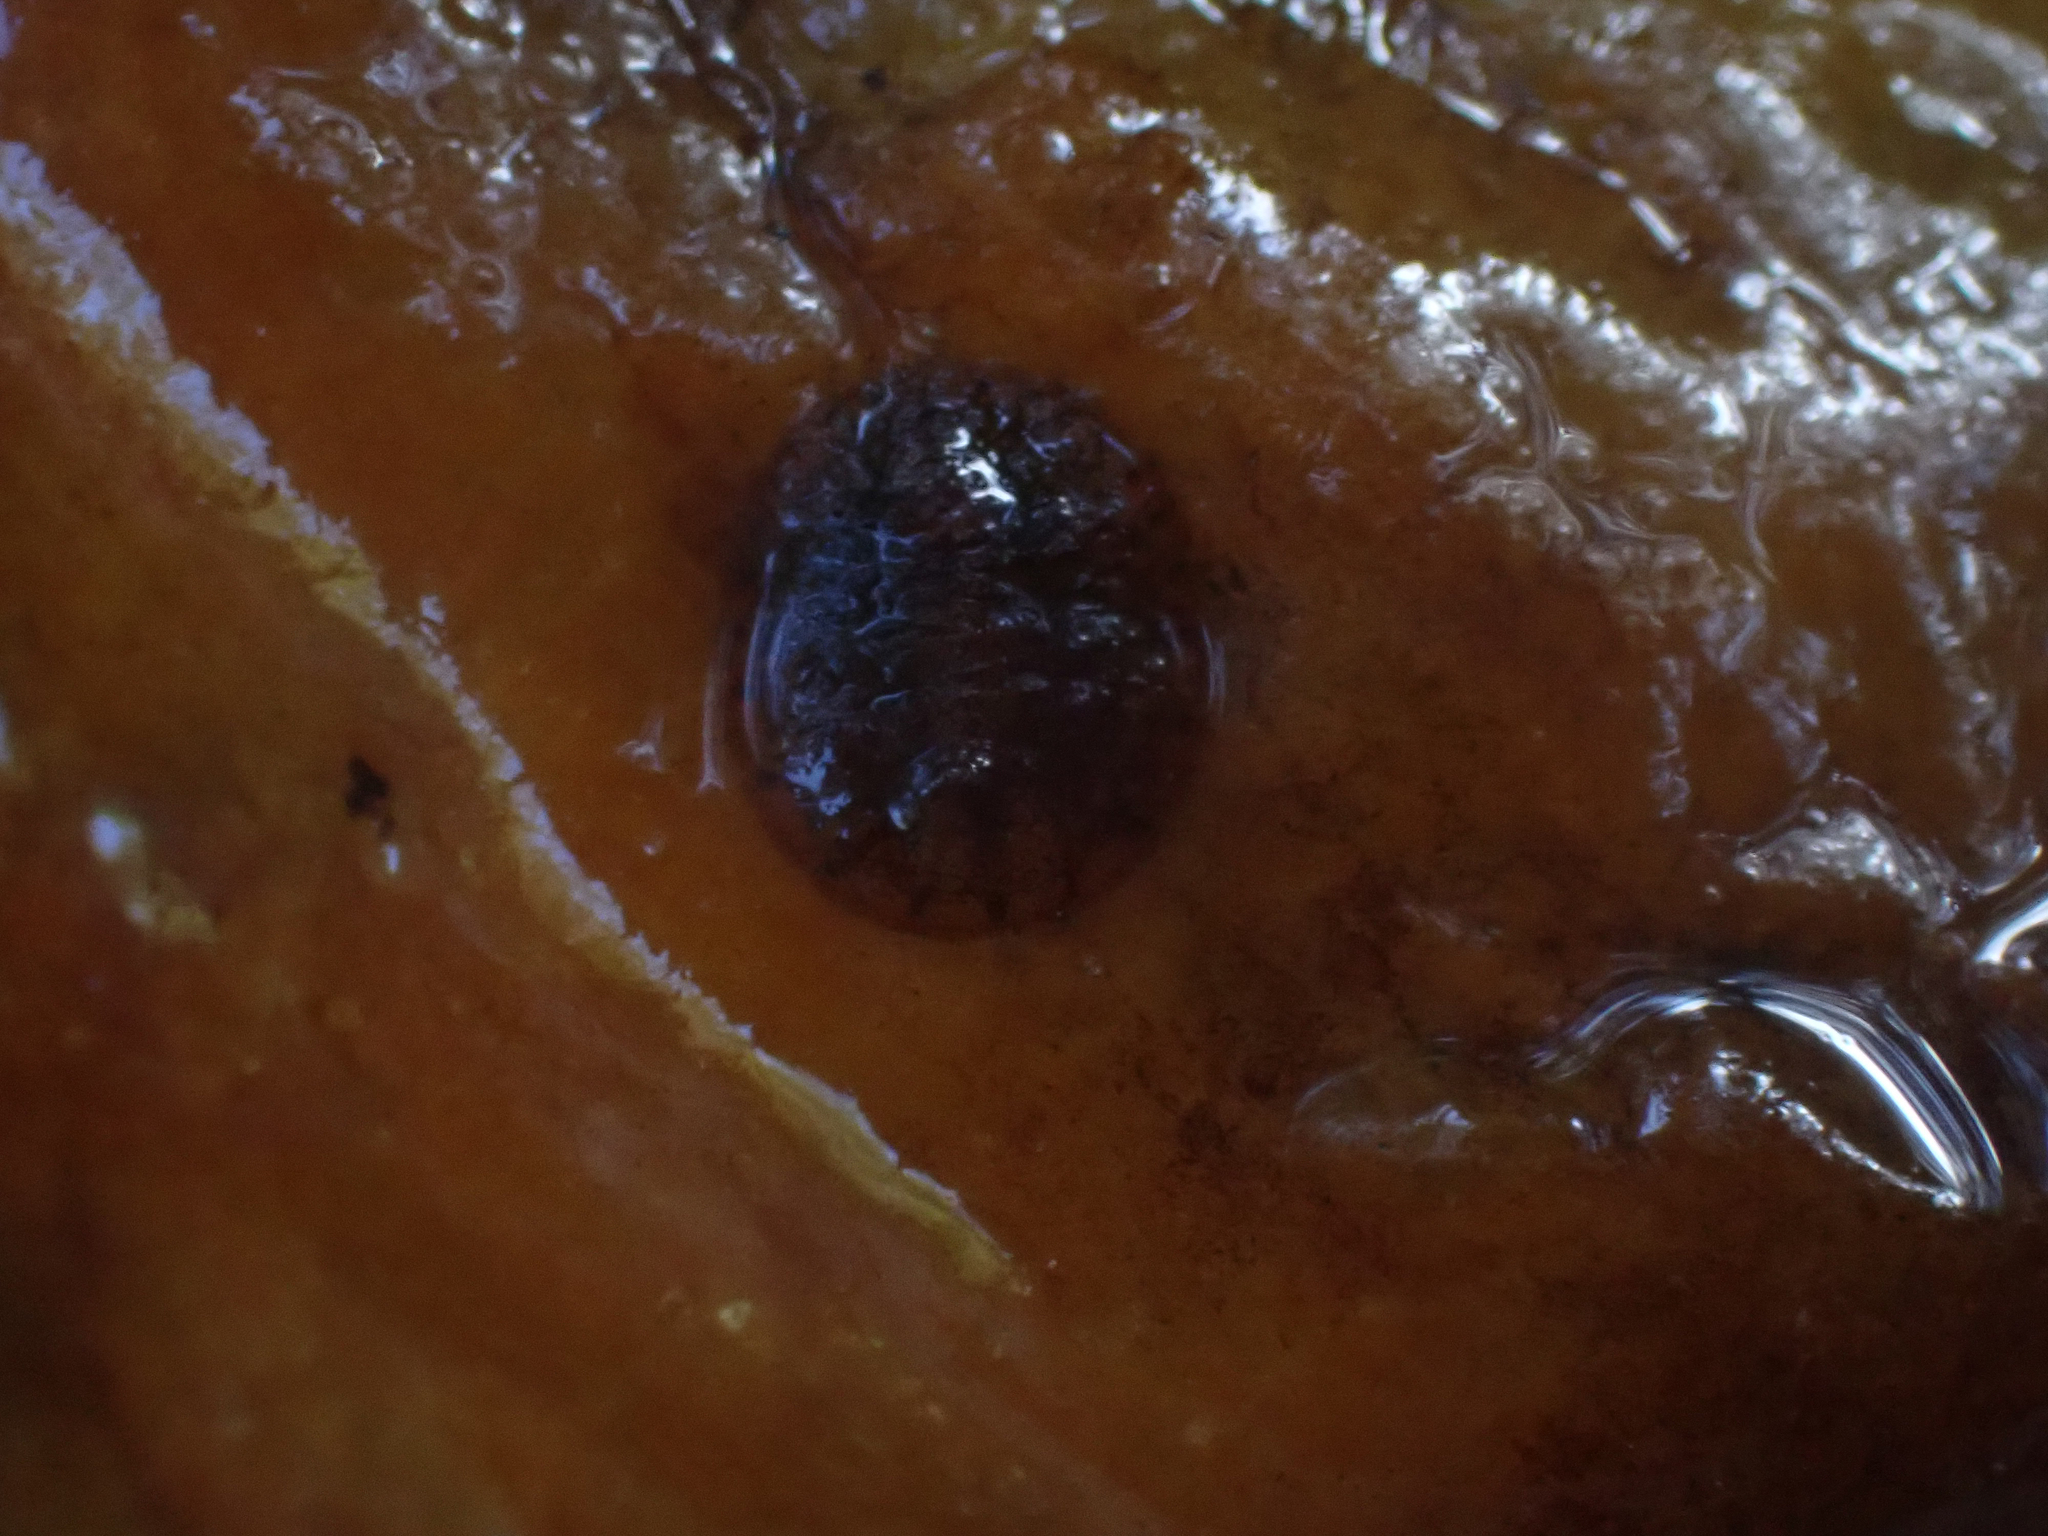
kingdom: Animalia
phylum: Arthropoda
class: Insecta
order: Coleoptera
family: Psephenidae
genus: Psephenus
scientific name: Psephenus herricki
